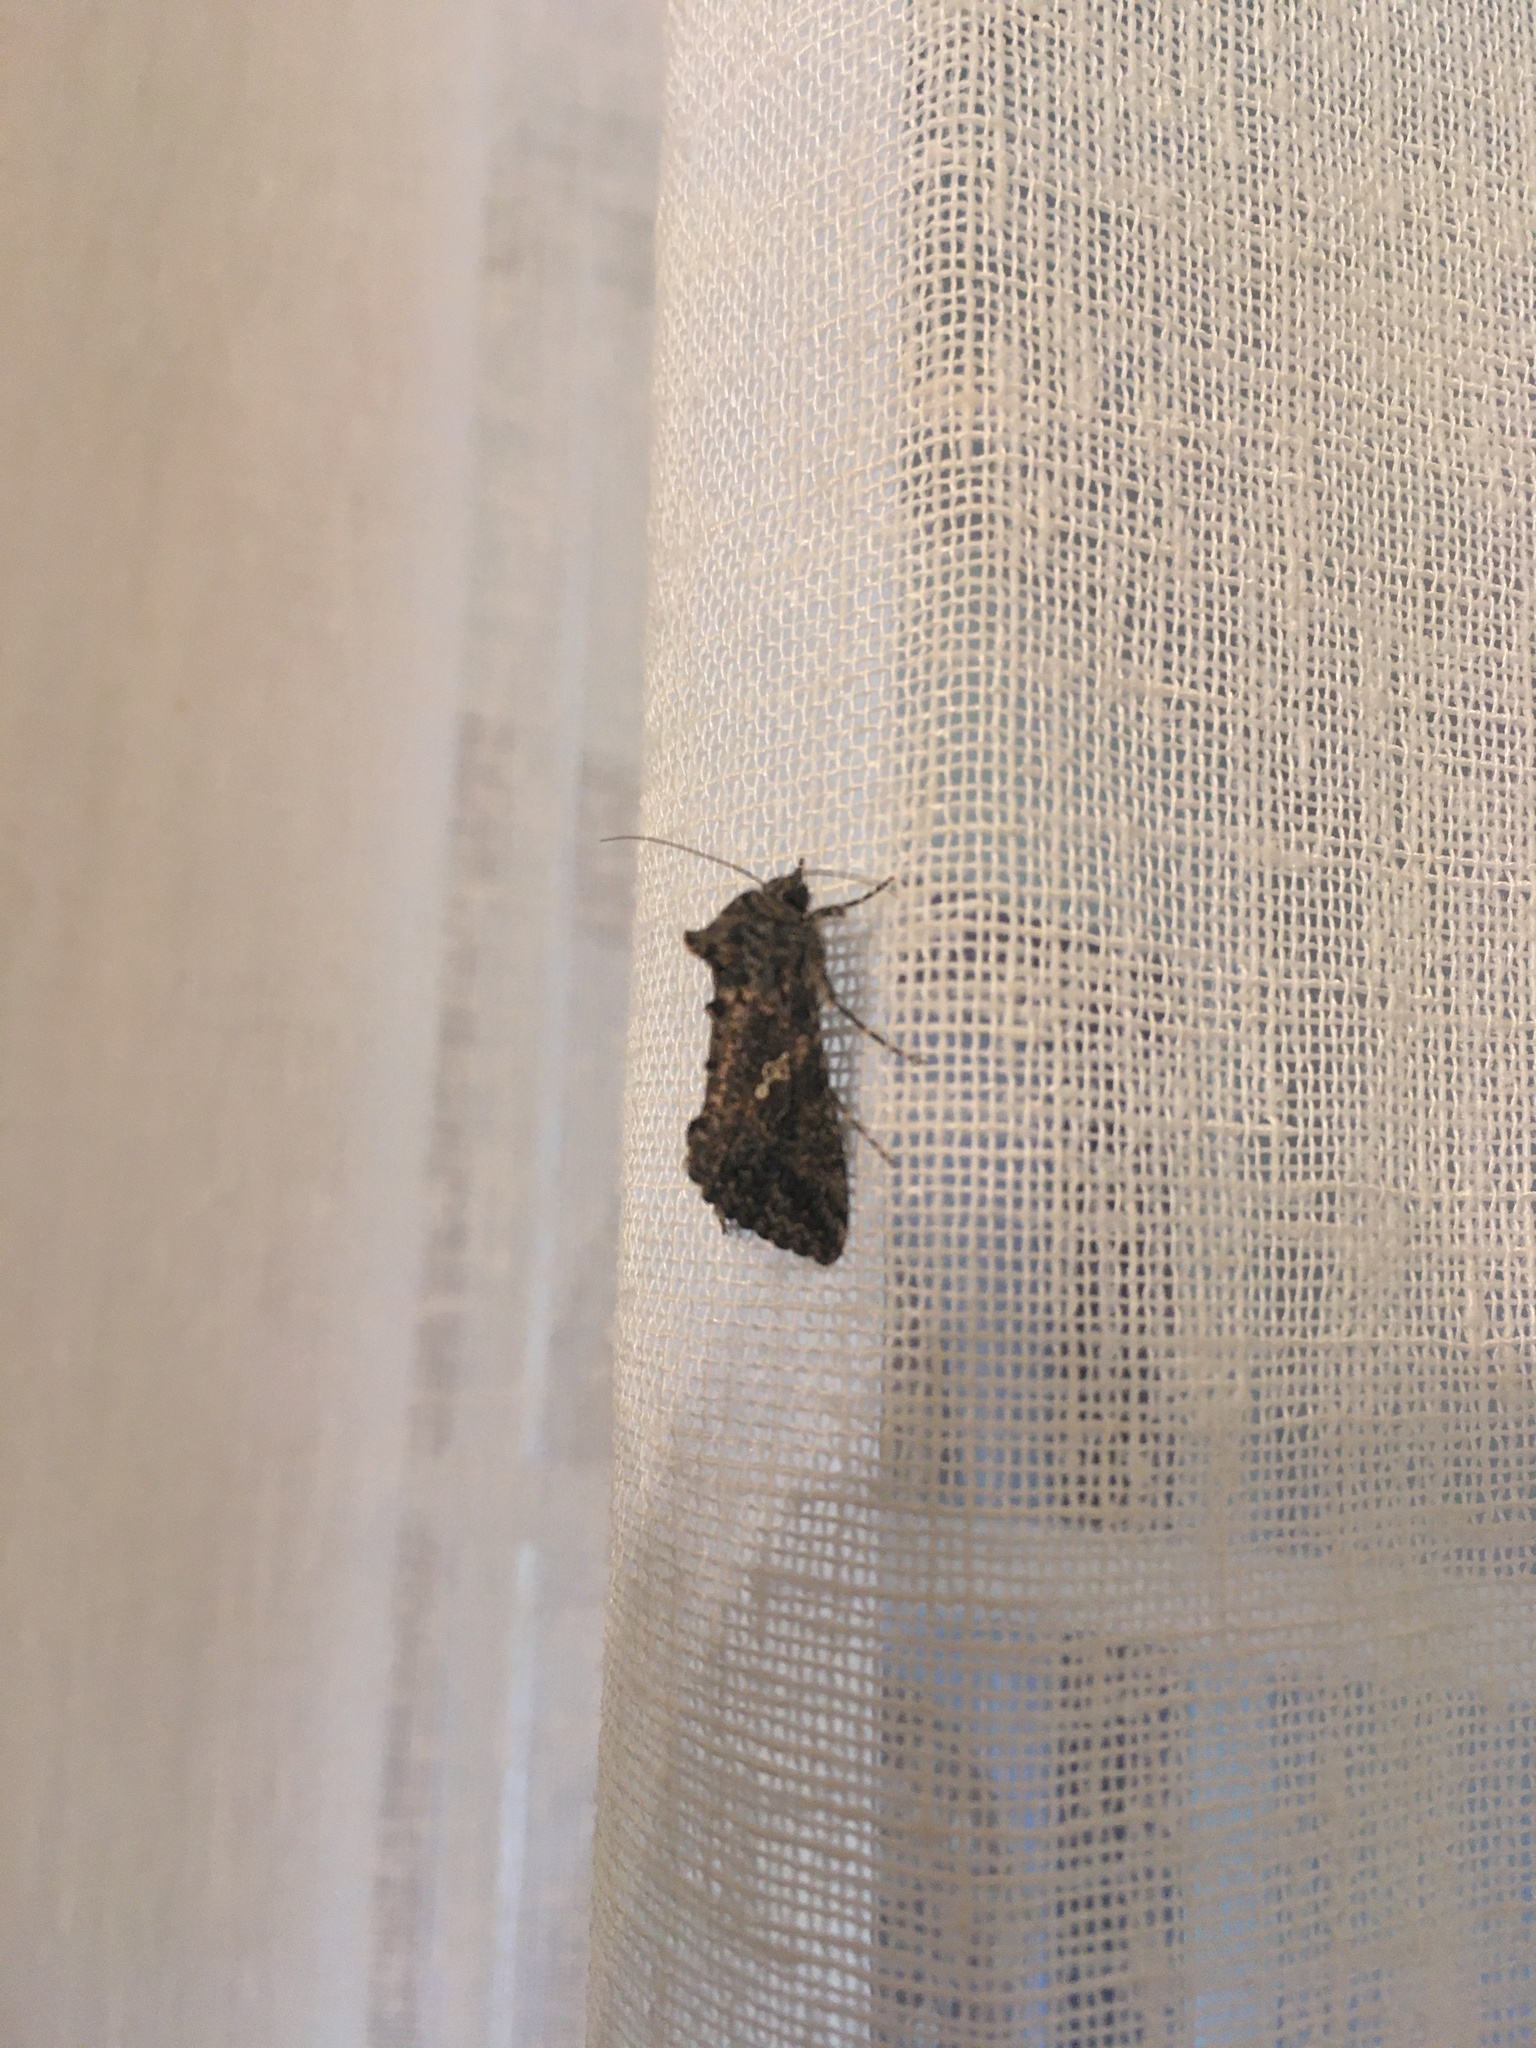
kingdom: Animalia
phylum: Arthropoda
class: Insecta
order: Lepidoptera
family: Noctuidae
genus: Trichoplusia
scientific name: Trichoplusia ni
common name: Ni moth
